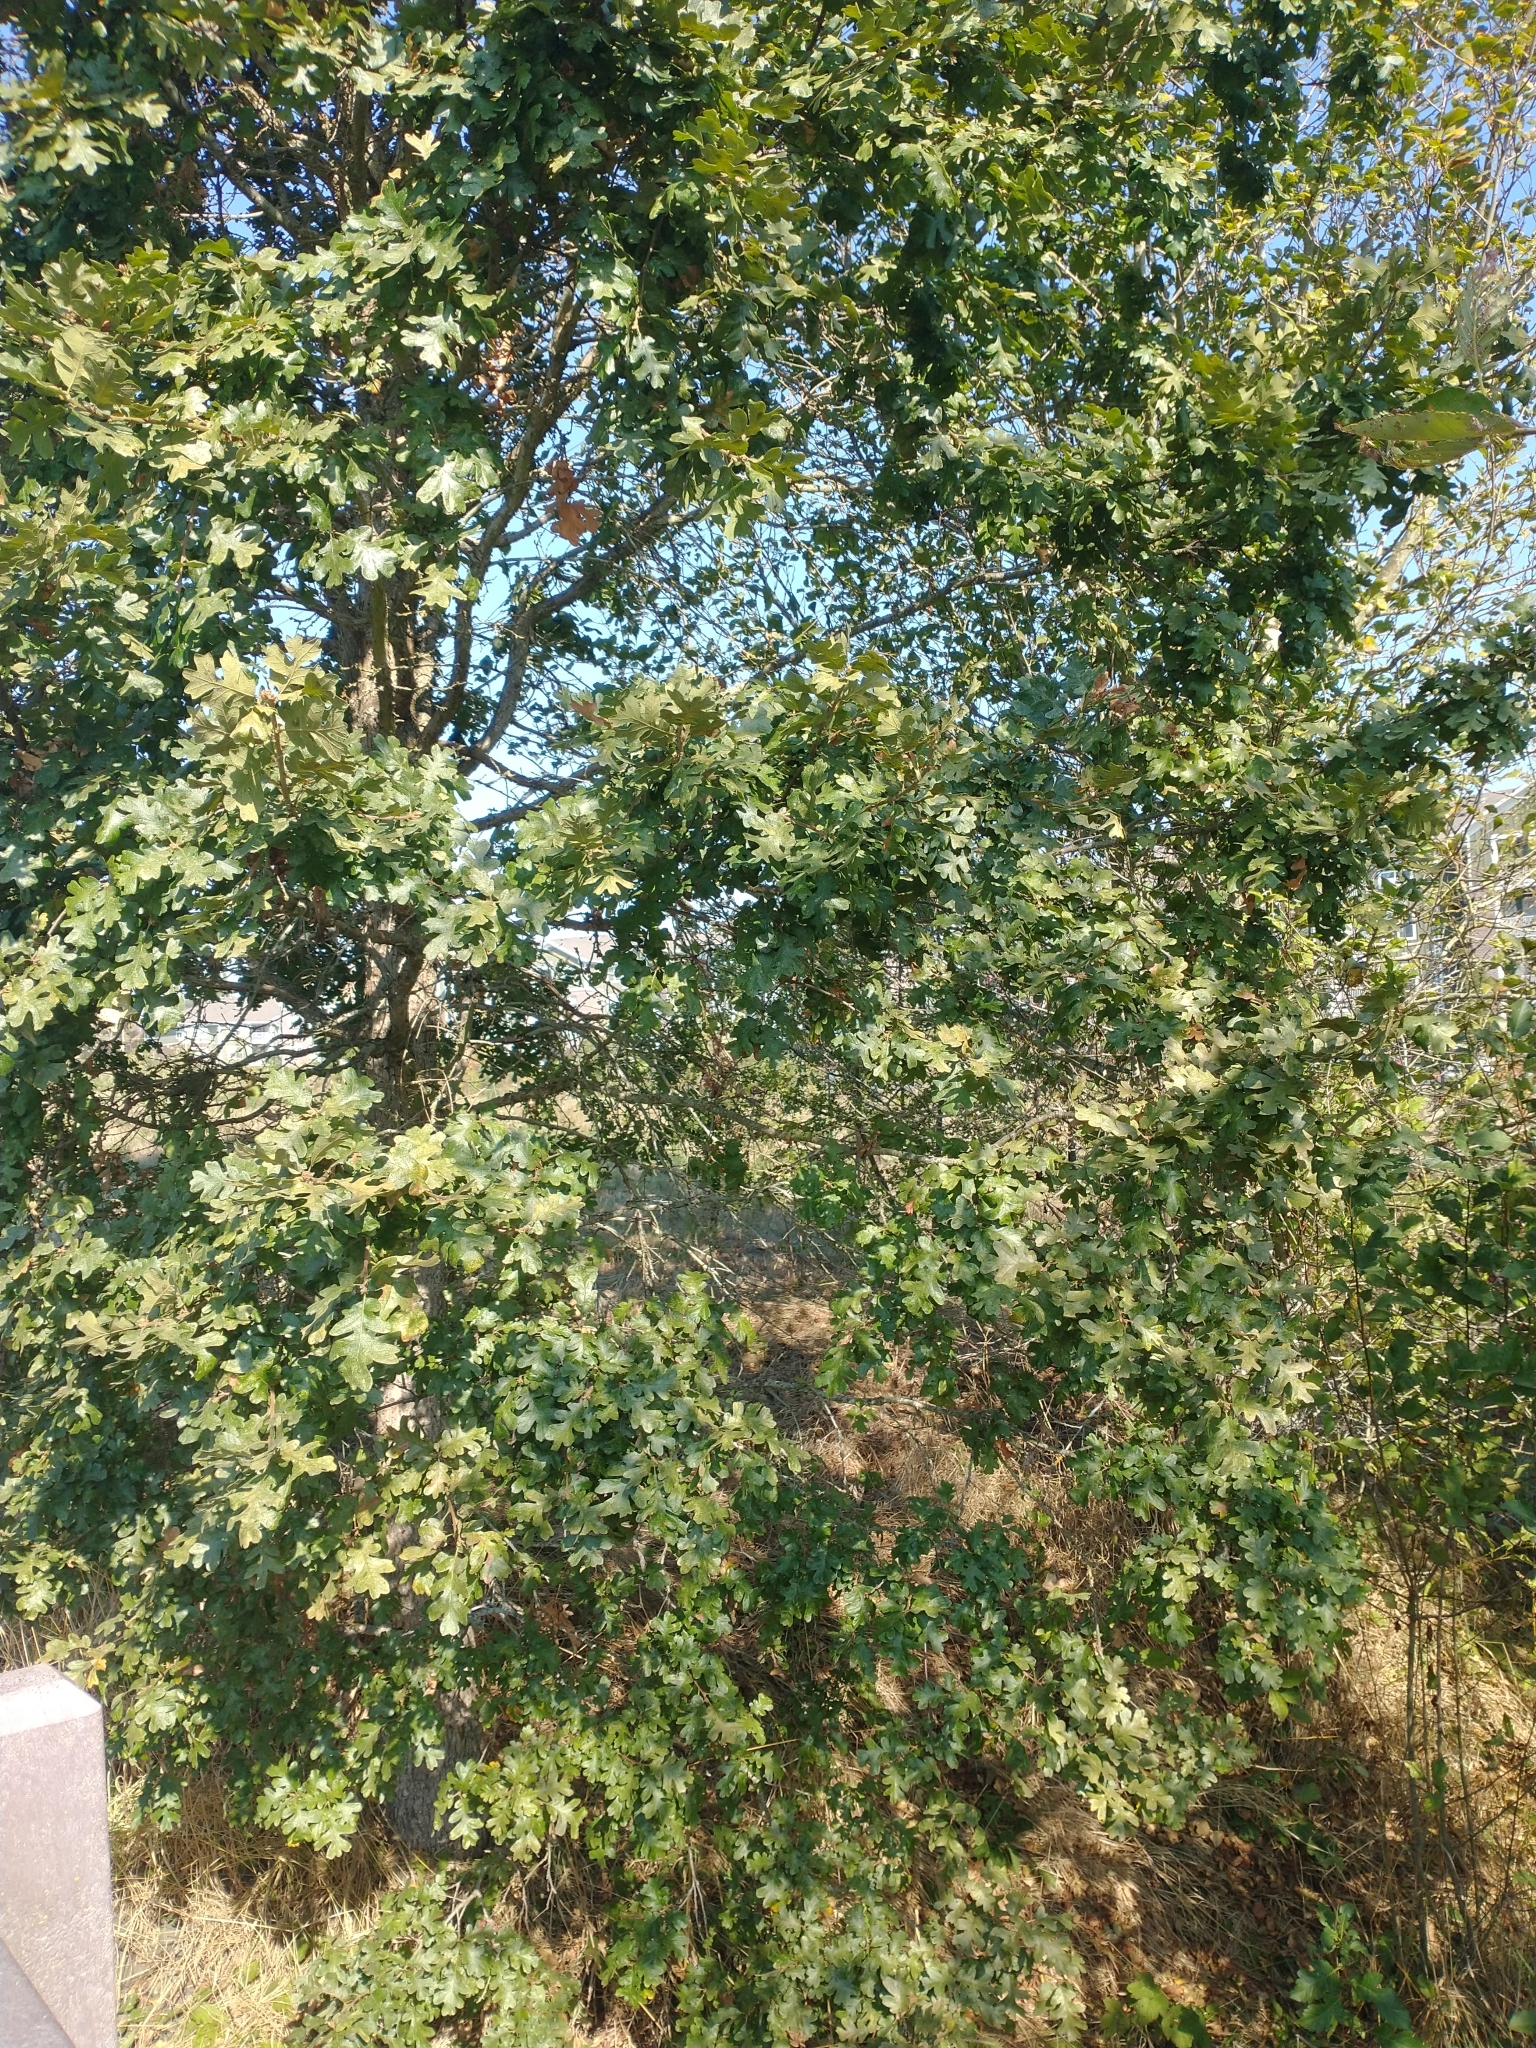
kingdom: Plantae
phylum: Tracheophyta
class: Magnoliopsida
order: Fagales
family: Fagaceae
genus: Quercus
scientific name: Quercus garryana
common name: Garry oak
